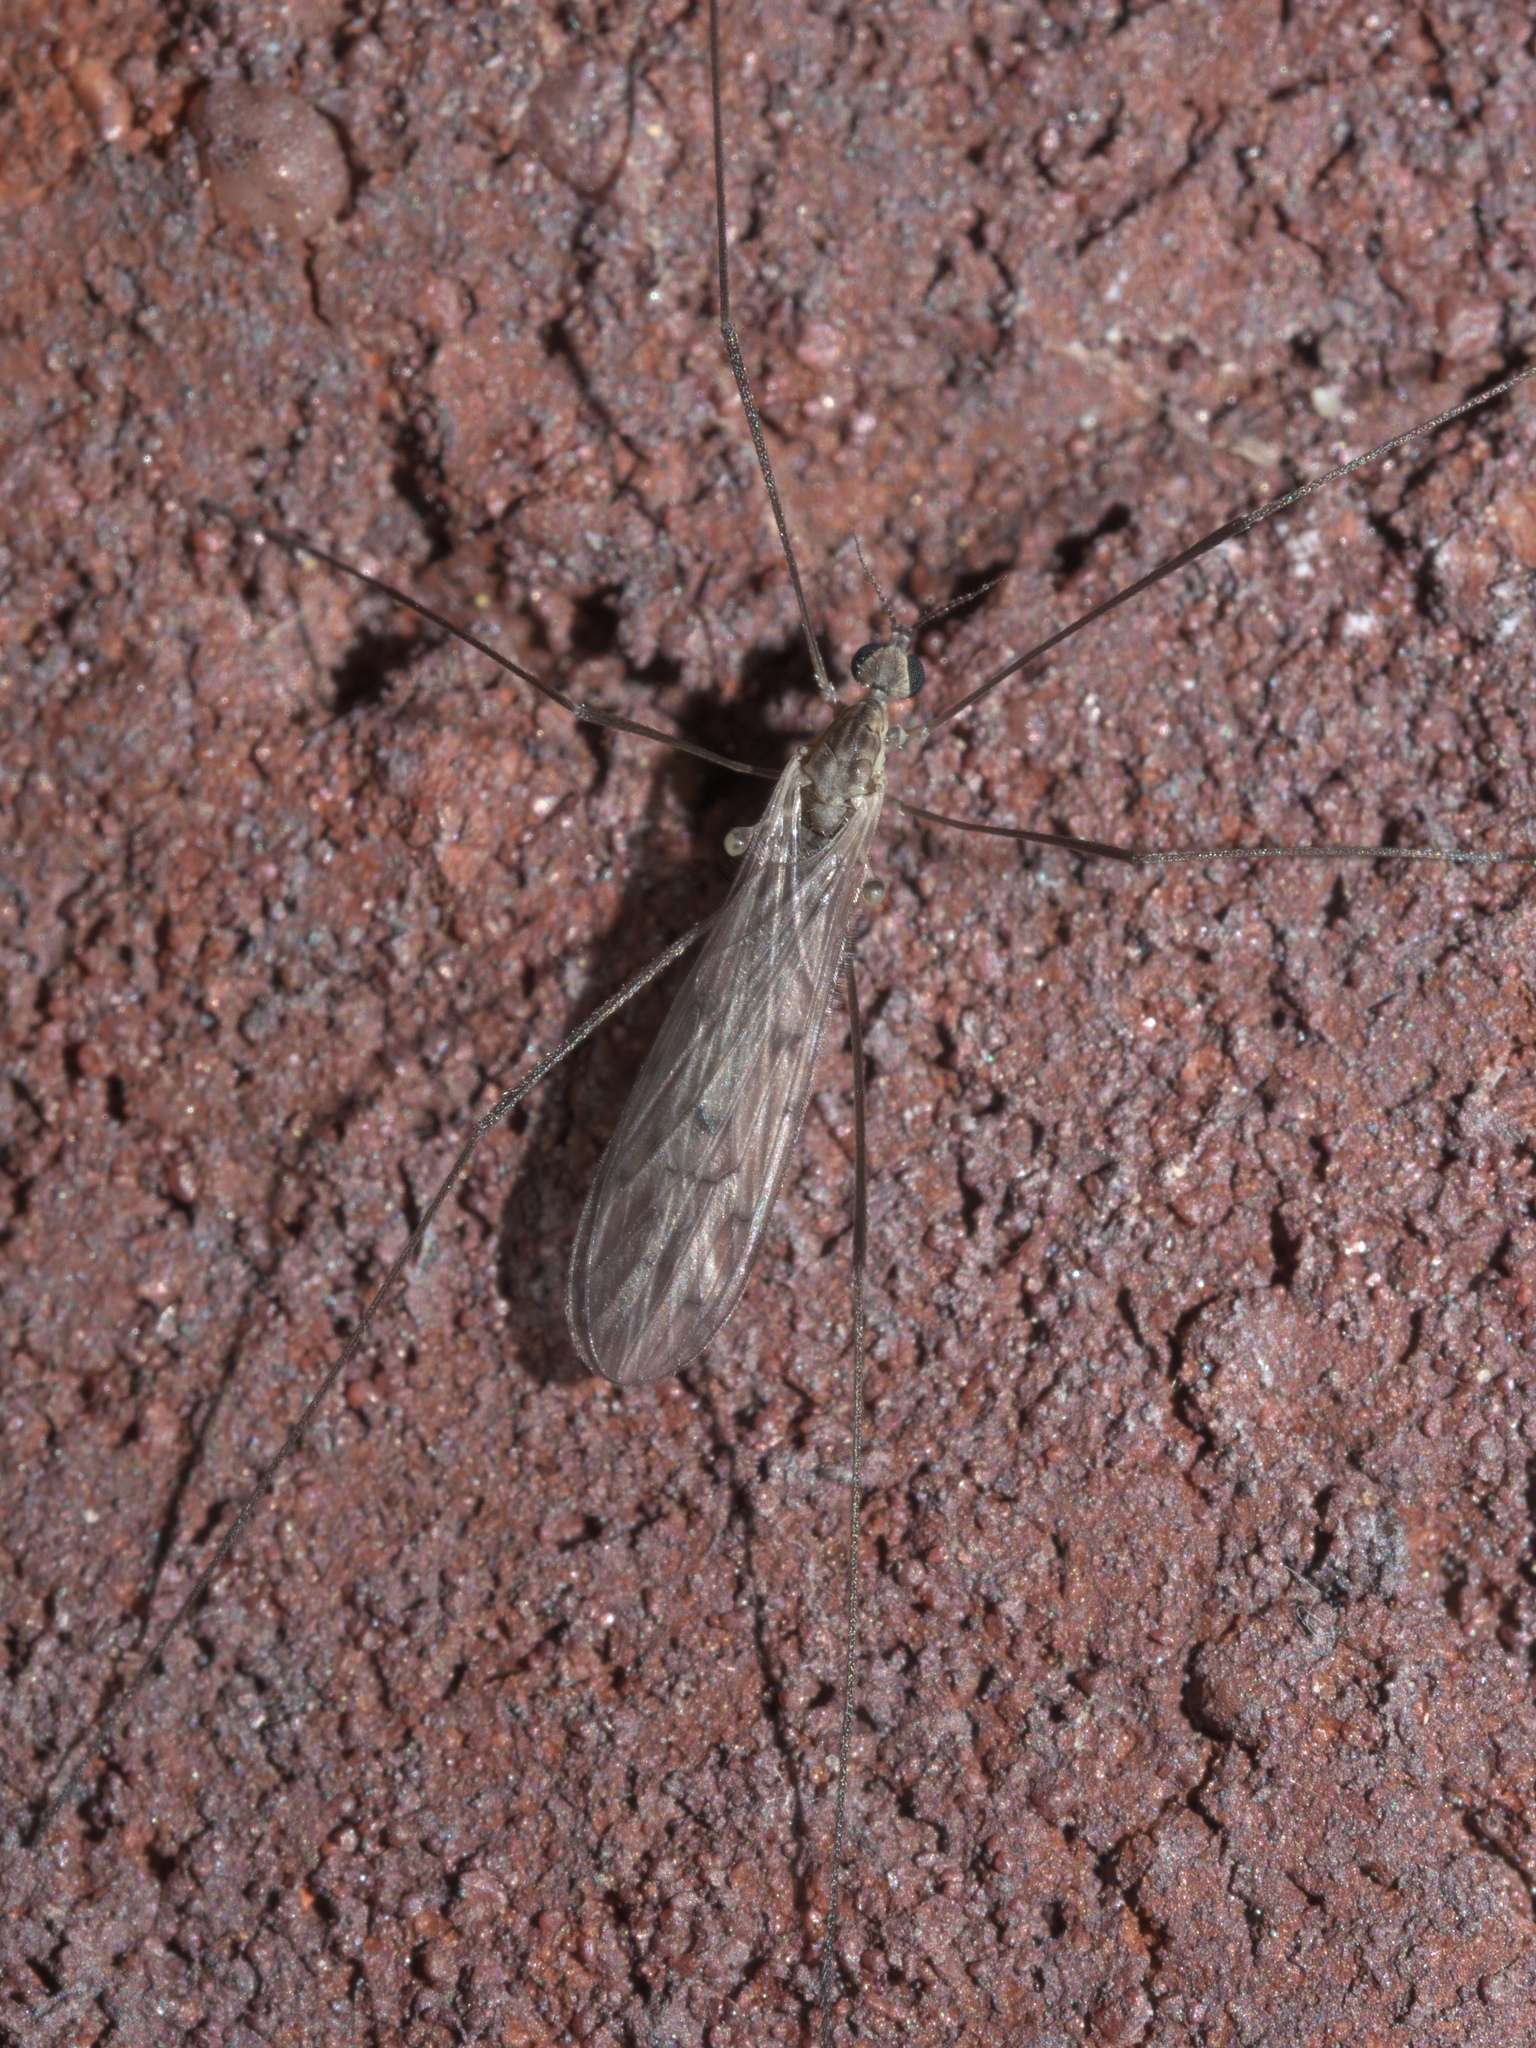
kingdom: Animalia
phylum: Arthropoda
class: Insecta
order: Diptera
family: Limoniidae
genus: Symplecta
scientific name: Symplecta cana
